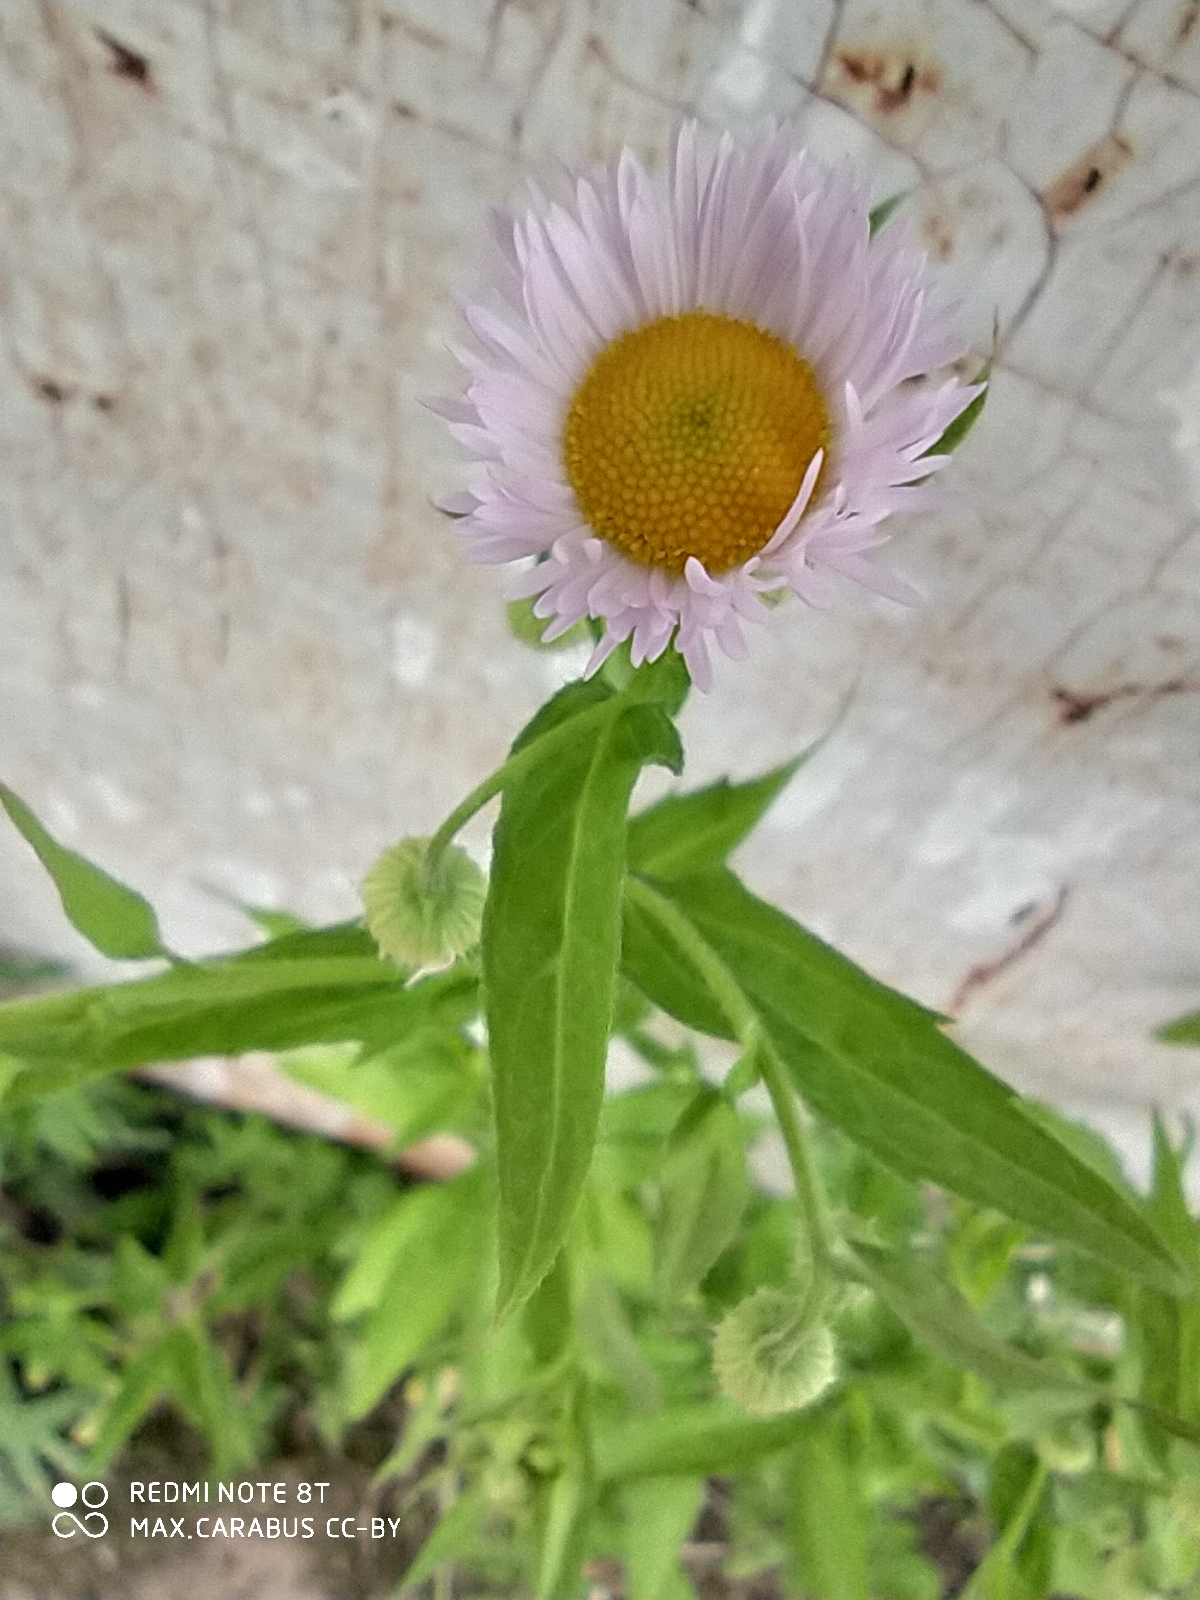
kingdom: Plantae
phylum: Tracheophyta
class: Magnoliopsida
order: Asterales
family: Asteraceae
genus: Erigeron
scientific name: Erigeron annuus
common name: Tall fleabane
